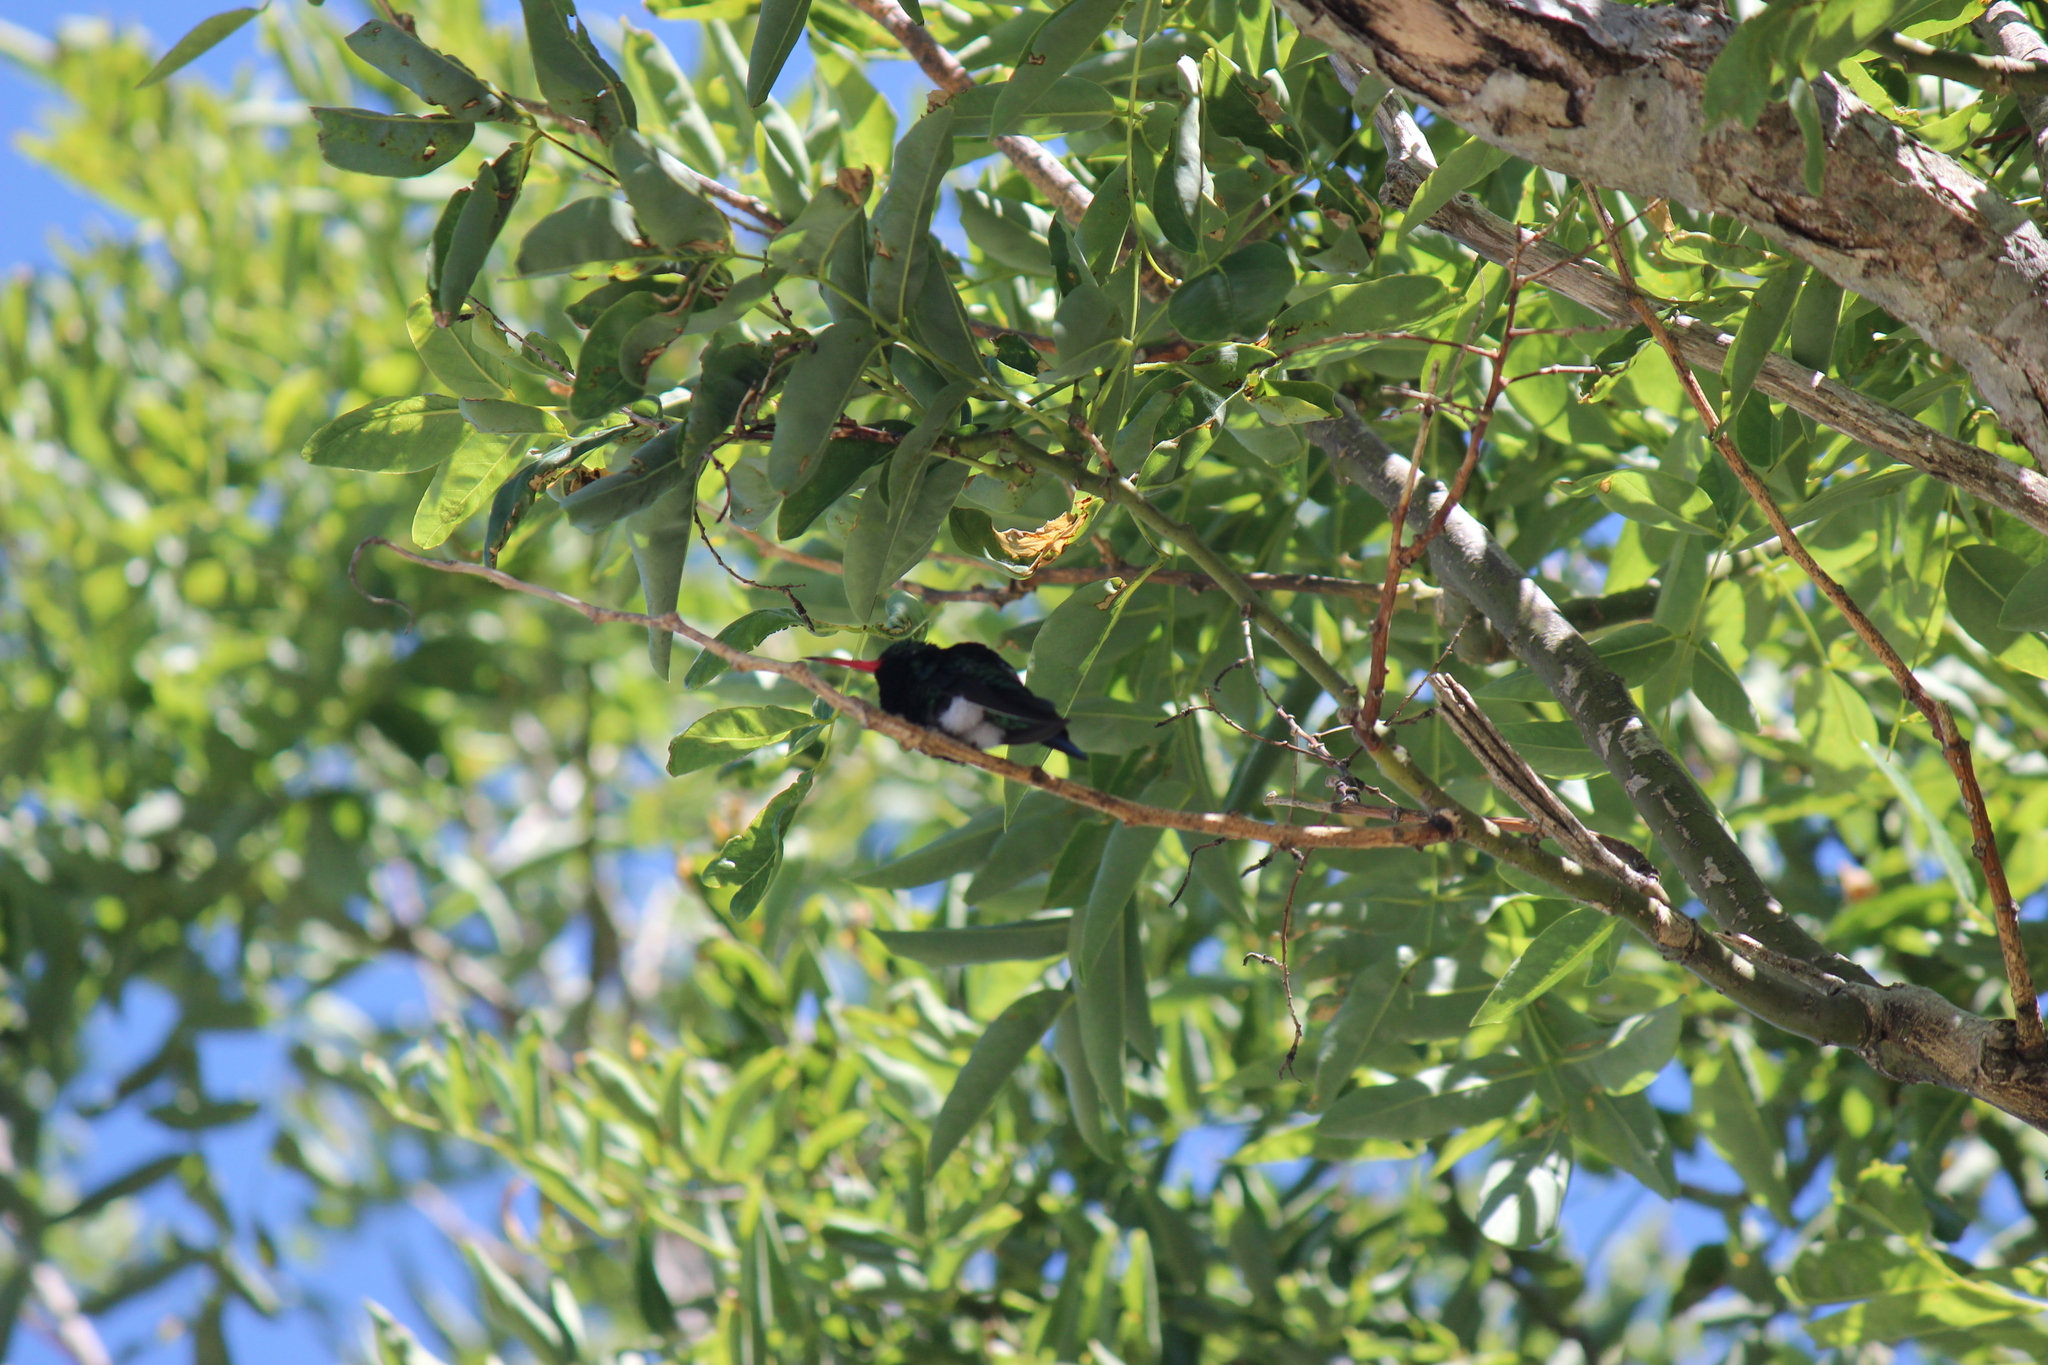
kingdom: Animalia
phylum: Chordata
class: Aves
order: Apodiformes
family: Trochilidae
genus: Chlorostilbon
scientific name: Chlorostilbon lucidus
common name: Glittering-bellied emerald
